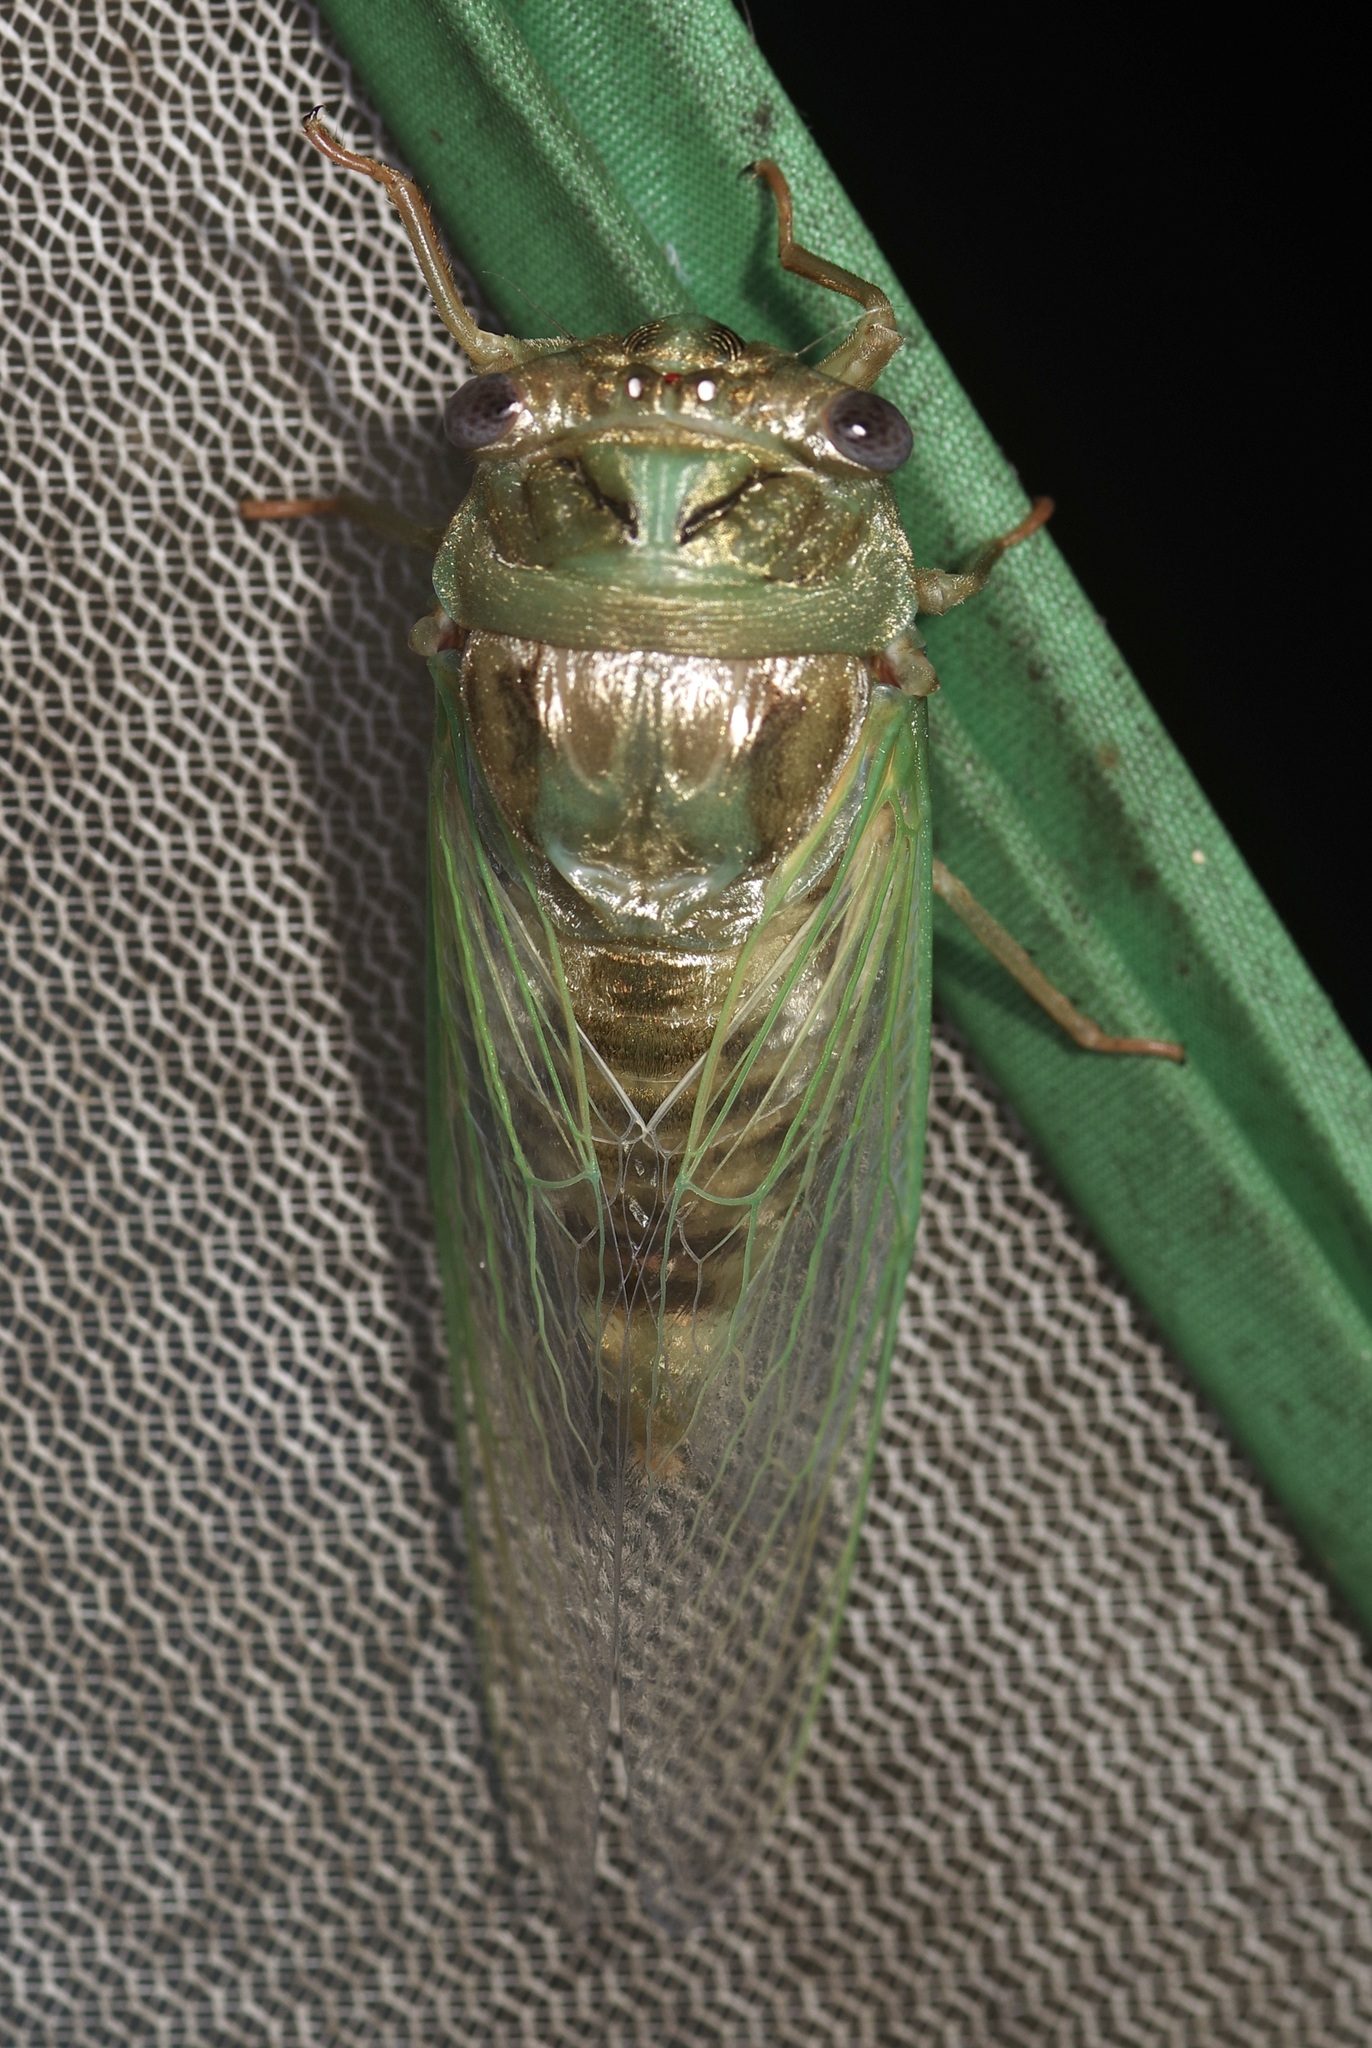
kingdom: Animalia
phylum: Arthropoda
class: Insecta
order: Hemiptera
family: Cicadidae
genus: Megatibicen
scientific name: Megatibicen resh
